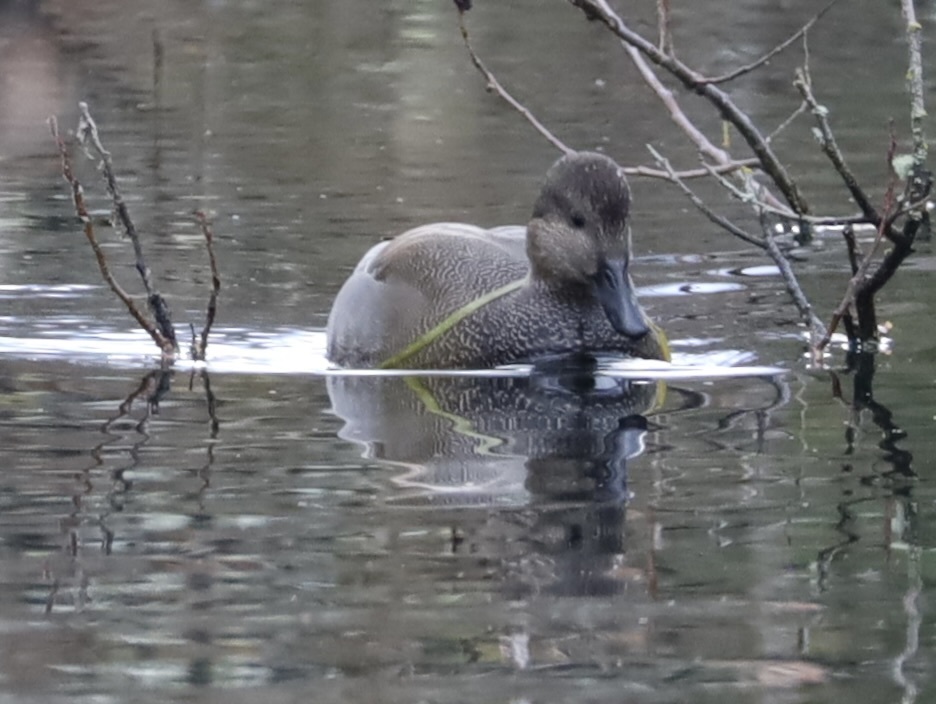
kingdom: Animalia
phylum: Chordata
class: Aves
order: Anseriformes
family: Anatidae
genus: Mareca
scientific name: Mareca strepera
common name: Gadwall
